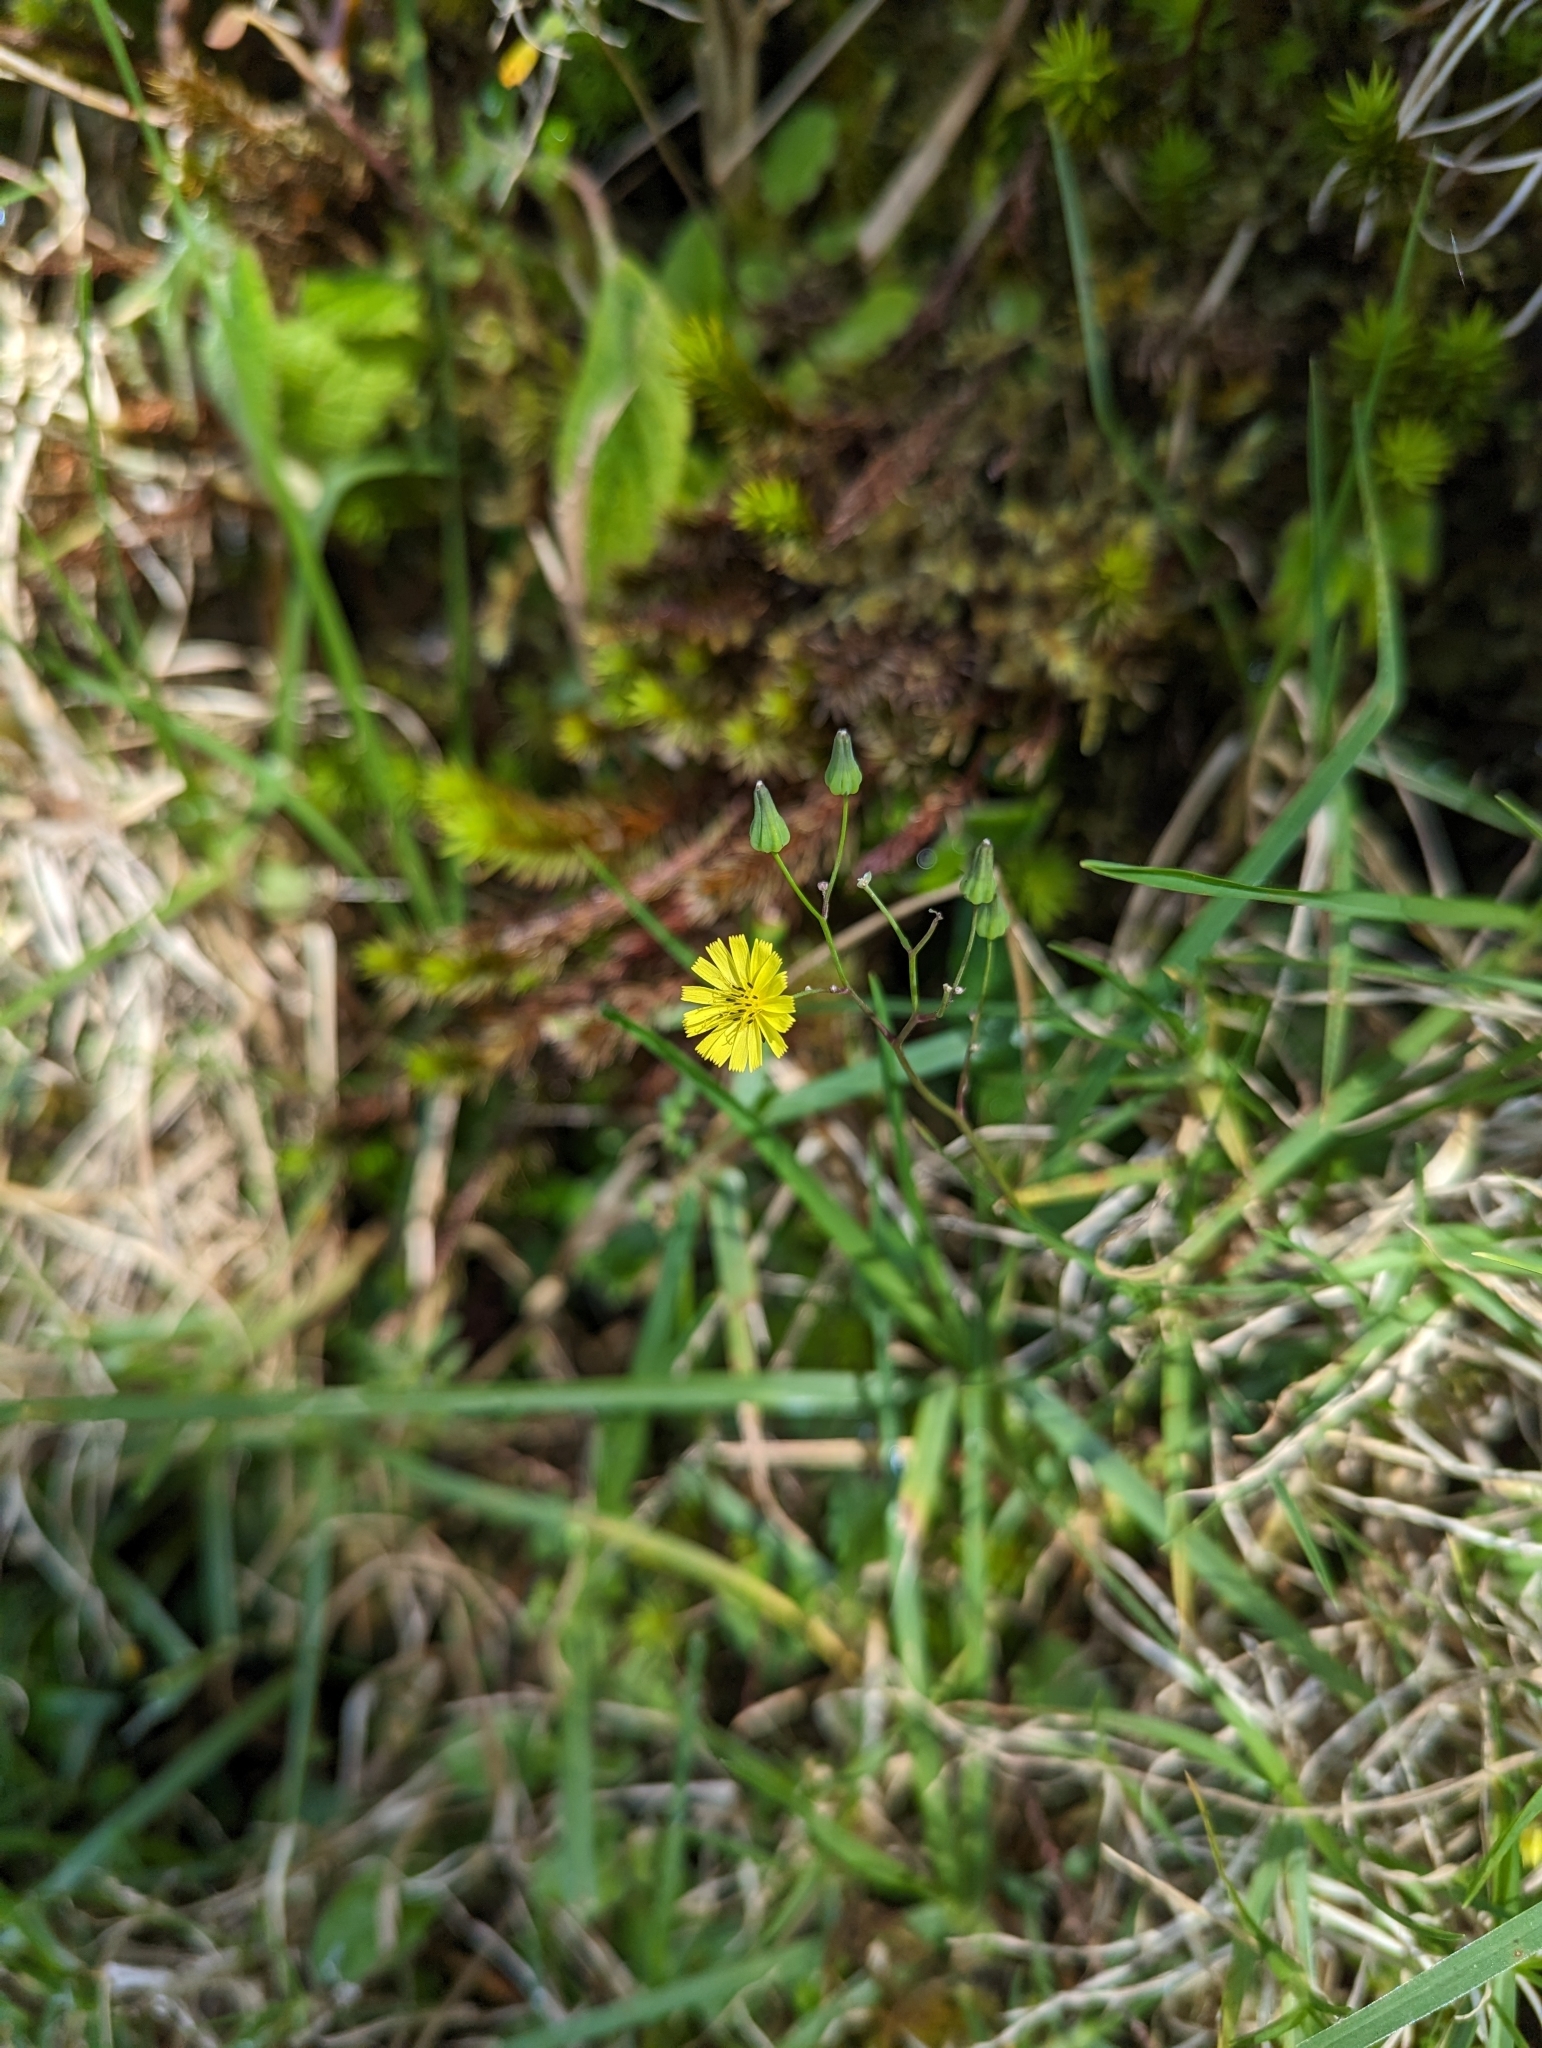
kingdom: Plantae
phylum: Tracheophyta
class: Magnoliopsida
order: Asterales
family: Asteraceae
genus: Youngia
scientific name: Youngia japonica
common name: Oriental false hawksbeard
